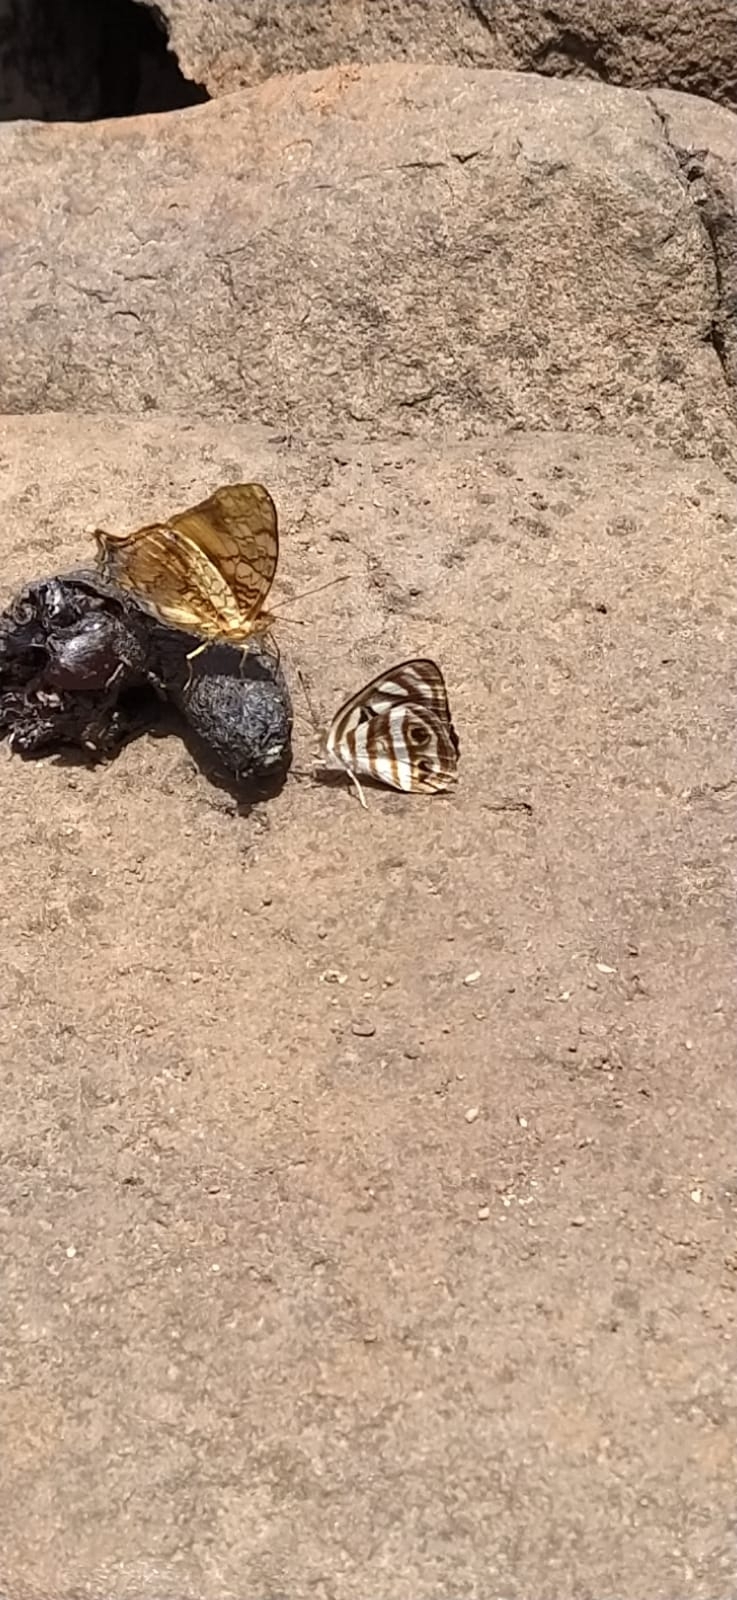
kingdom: Animalia
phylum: Arthropoda
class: Insecta
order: Lepidoptera
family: Nymphalidae
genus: Dynamine
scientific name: Dynamine mylitta
